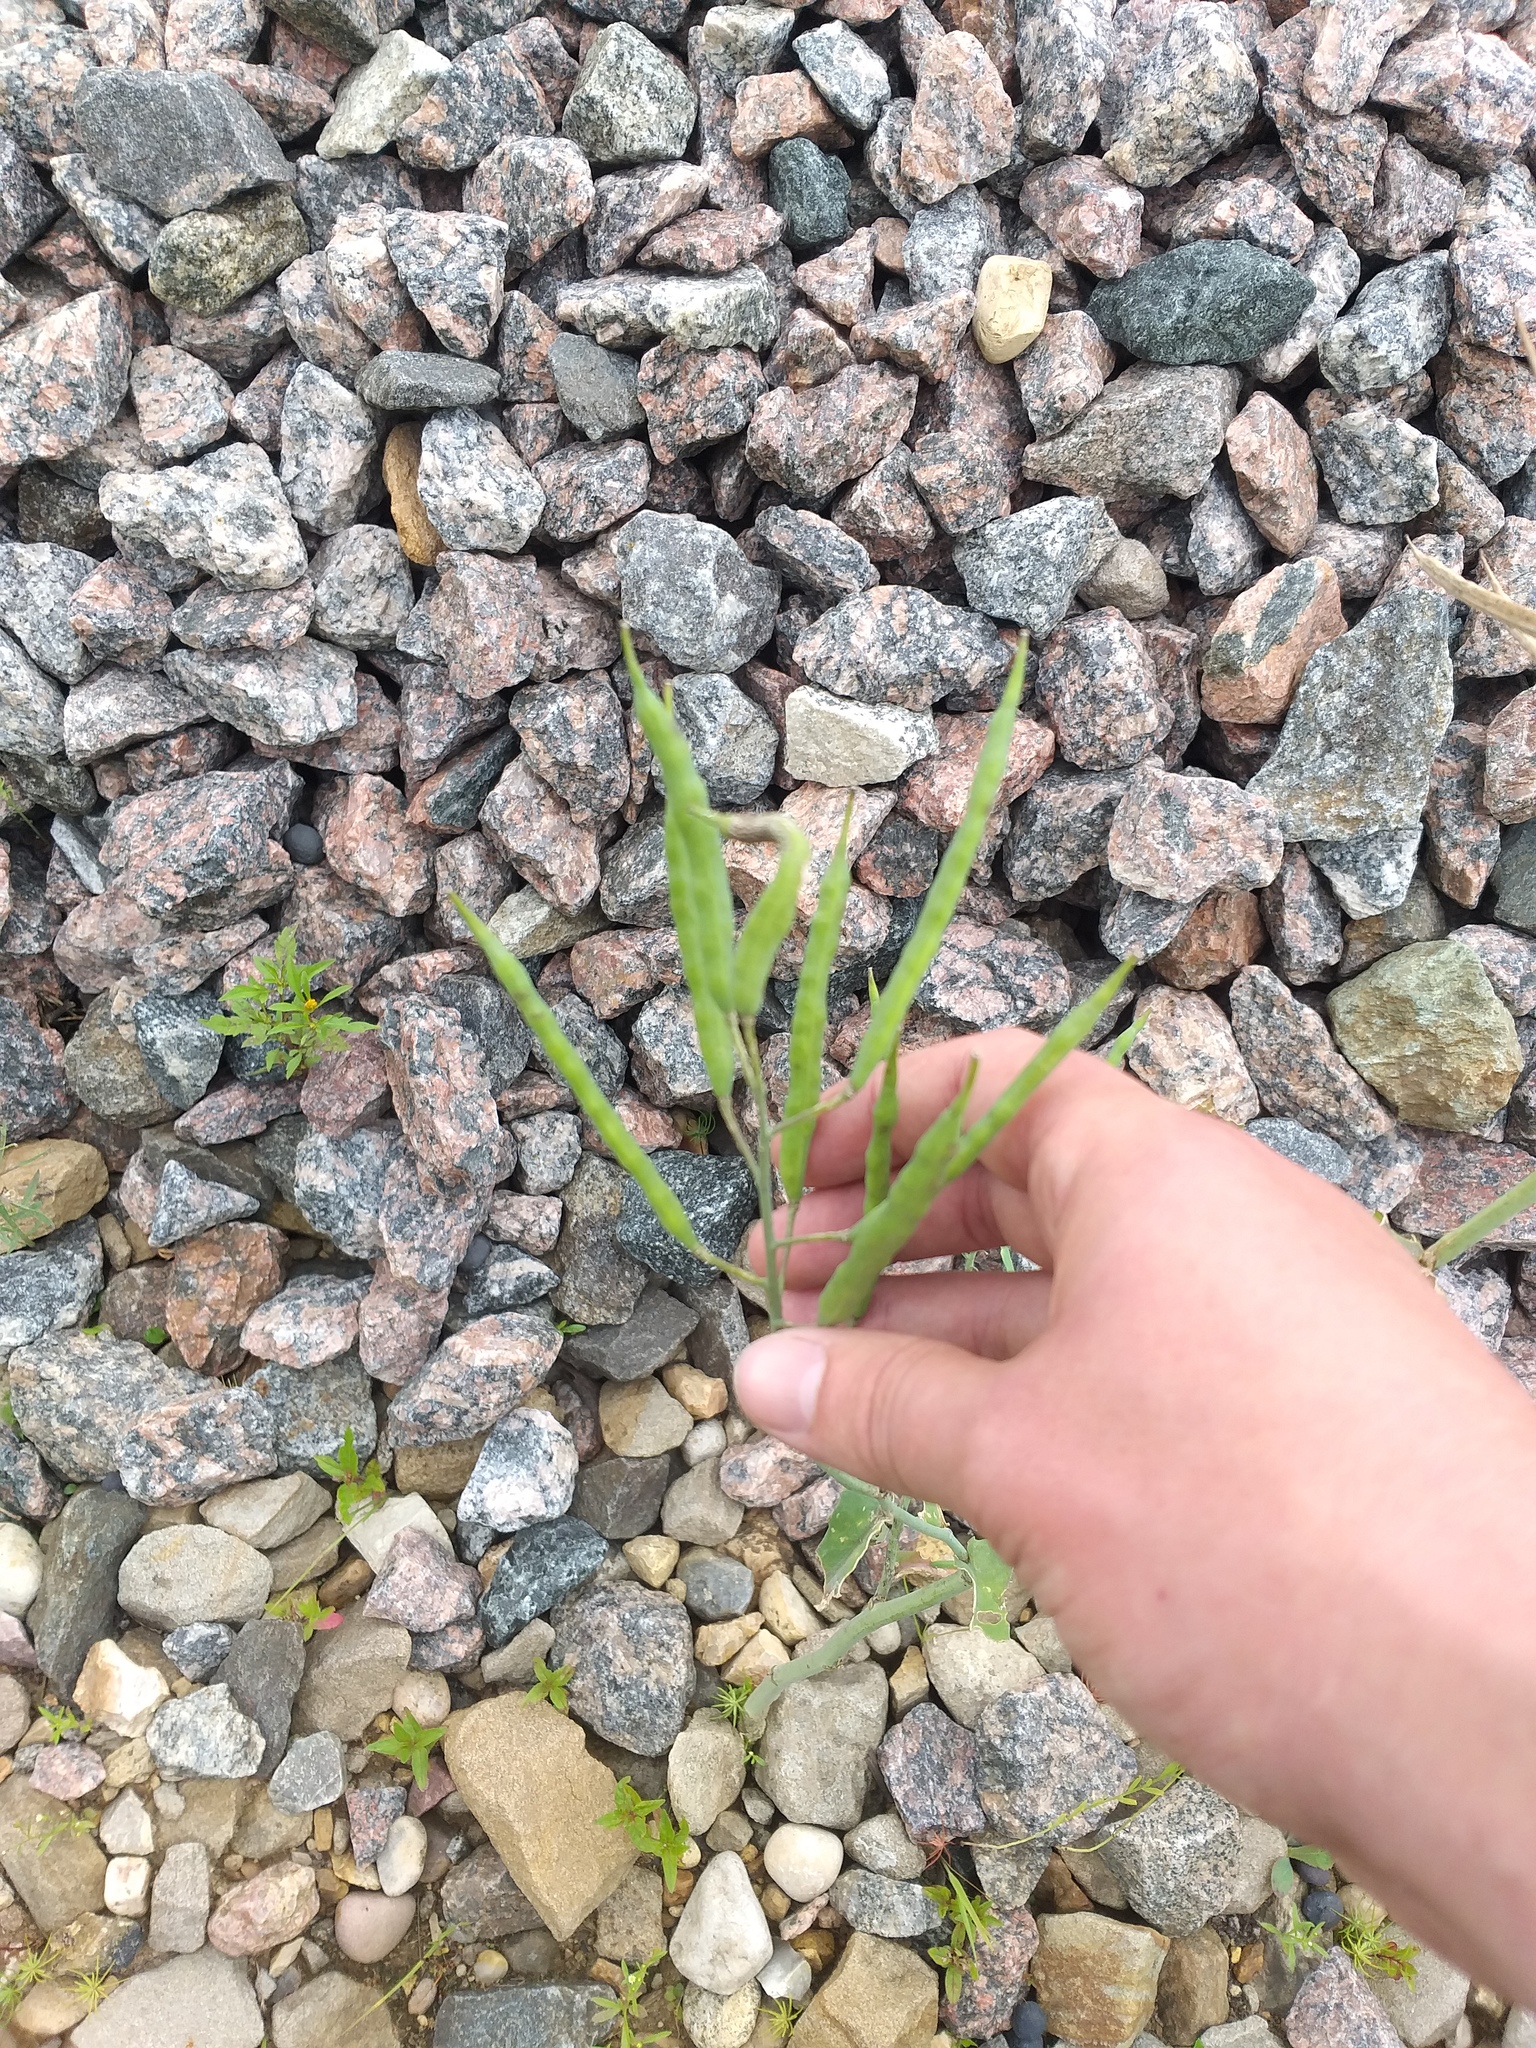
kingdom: Plantae
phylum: Tracheophyta
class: Magnoliopsida
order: Brassicales
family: Brassicaceae
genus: Brassica
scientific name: Brassica napus
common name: Rape
